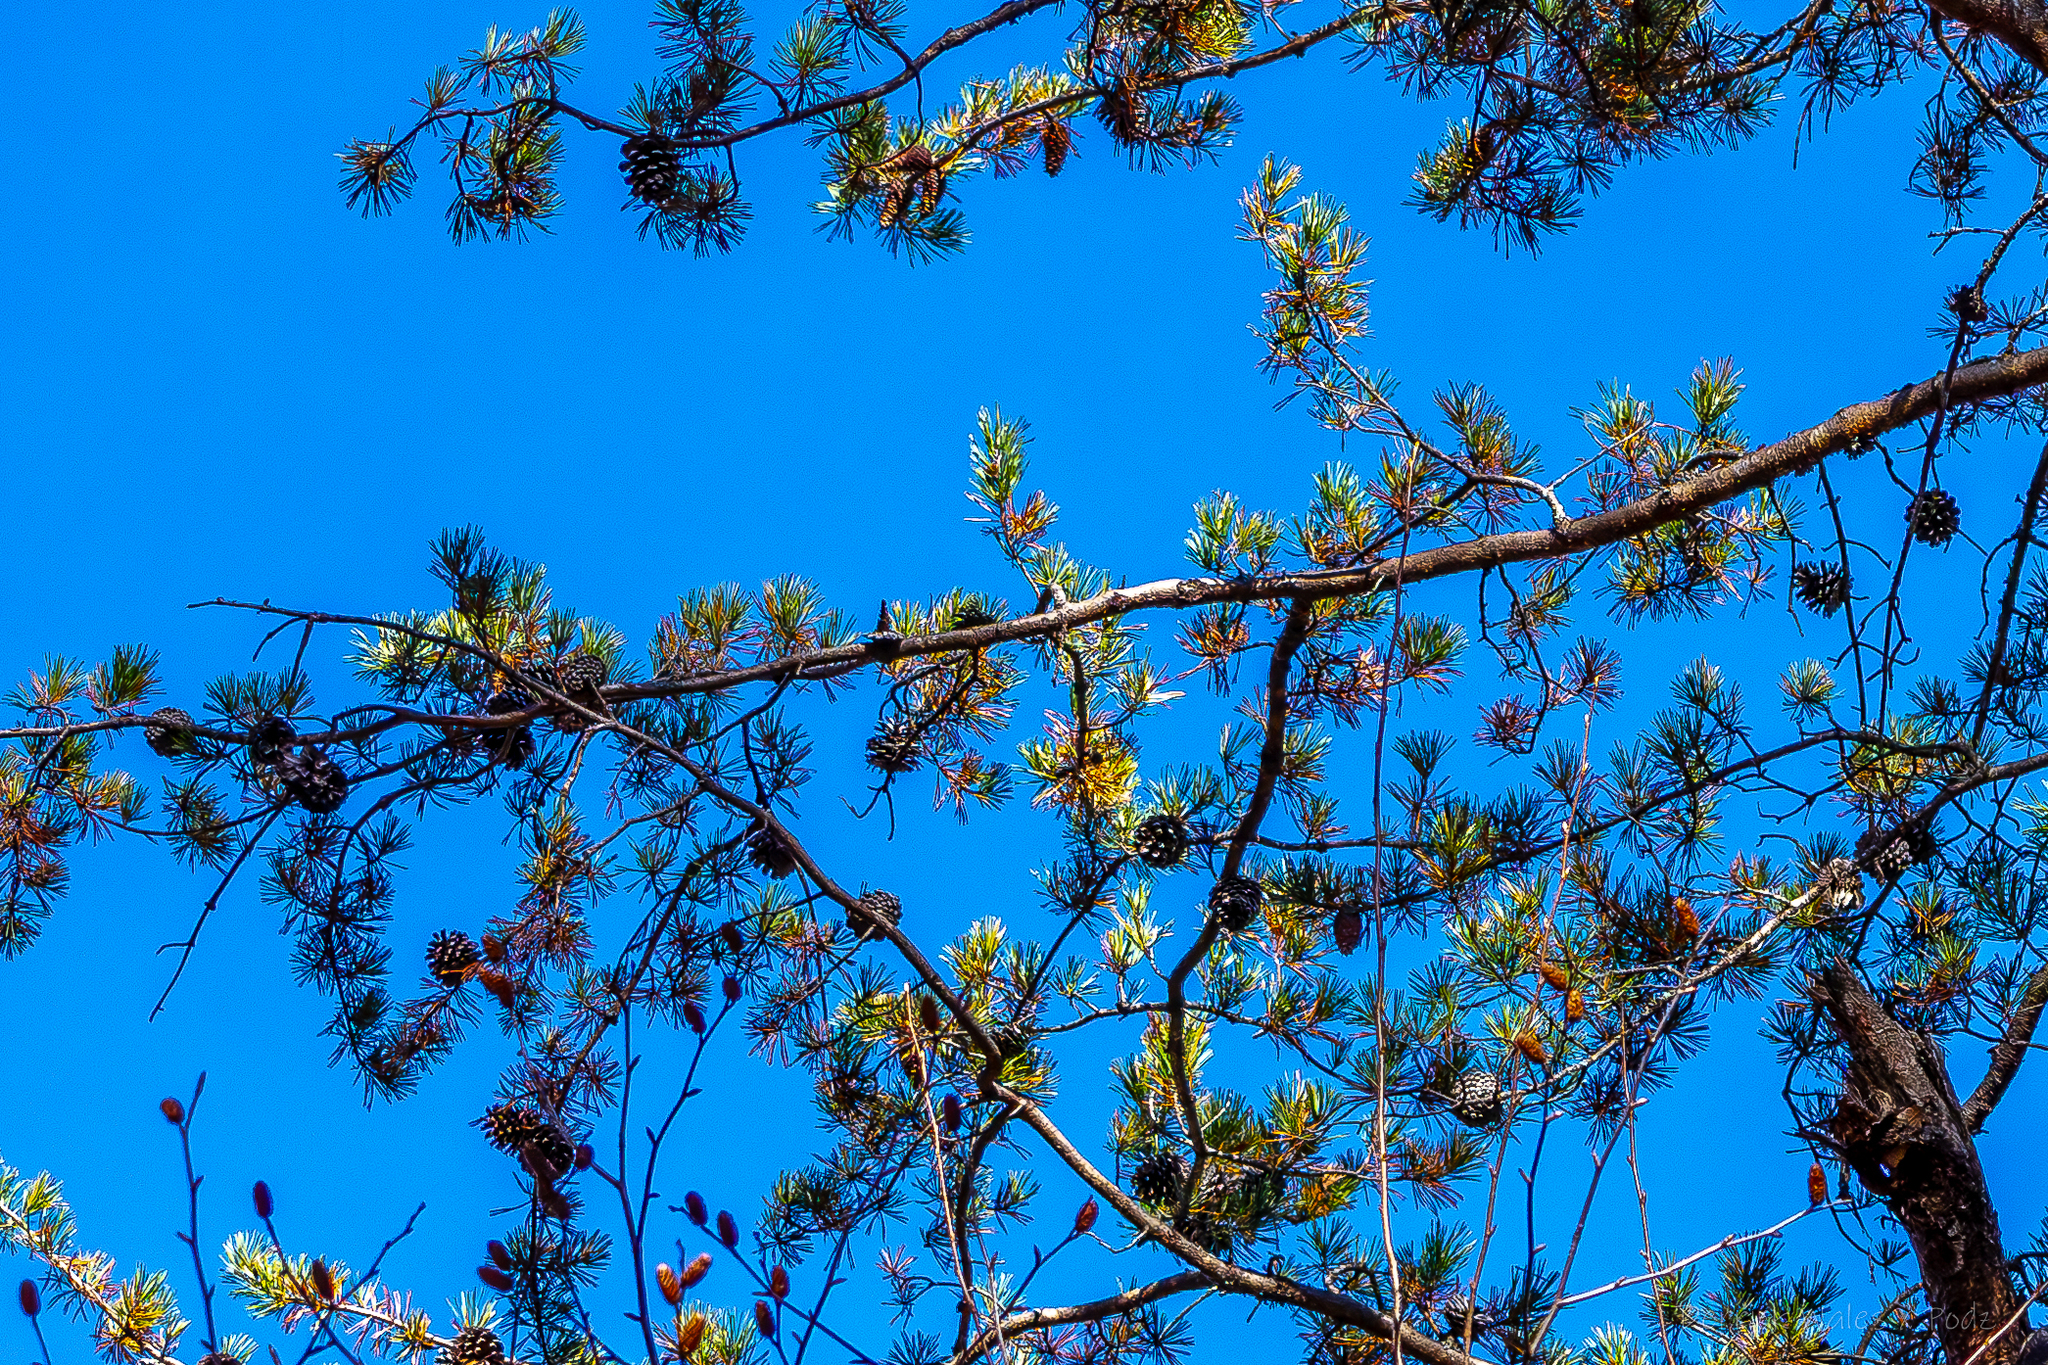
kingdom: Plantae
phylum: Tracheophyta
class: Pinopsida
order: Pinales
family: Pinaceae
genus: Pinus
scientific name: Pinus virginiana
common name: Scrub pine
